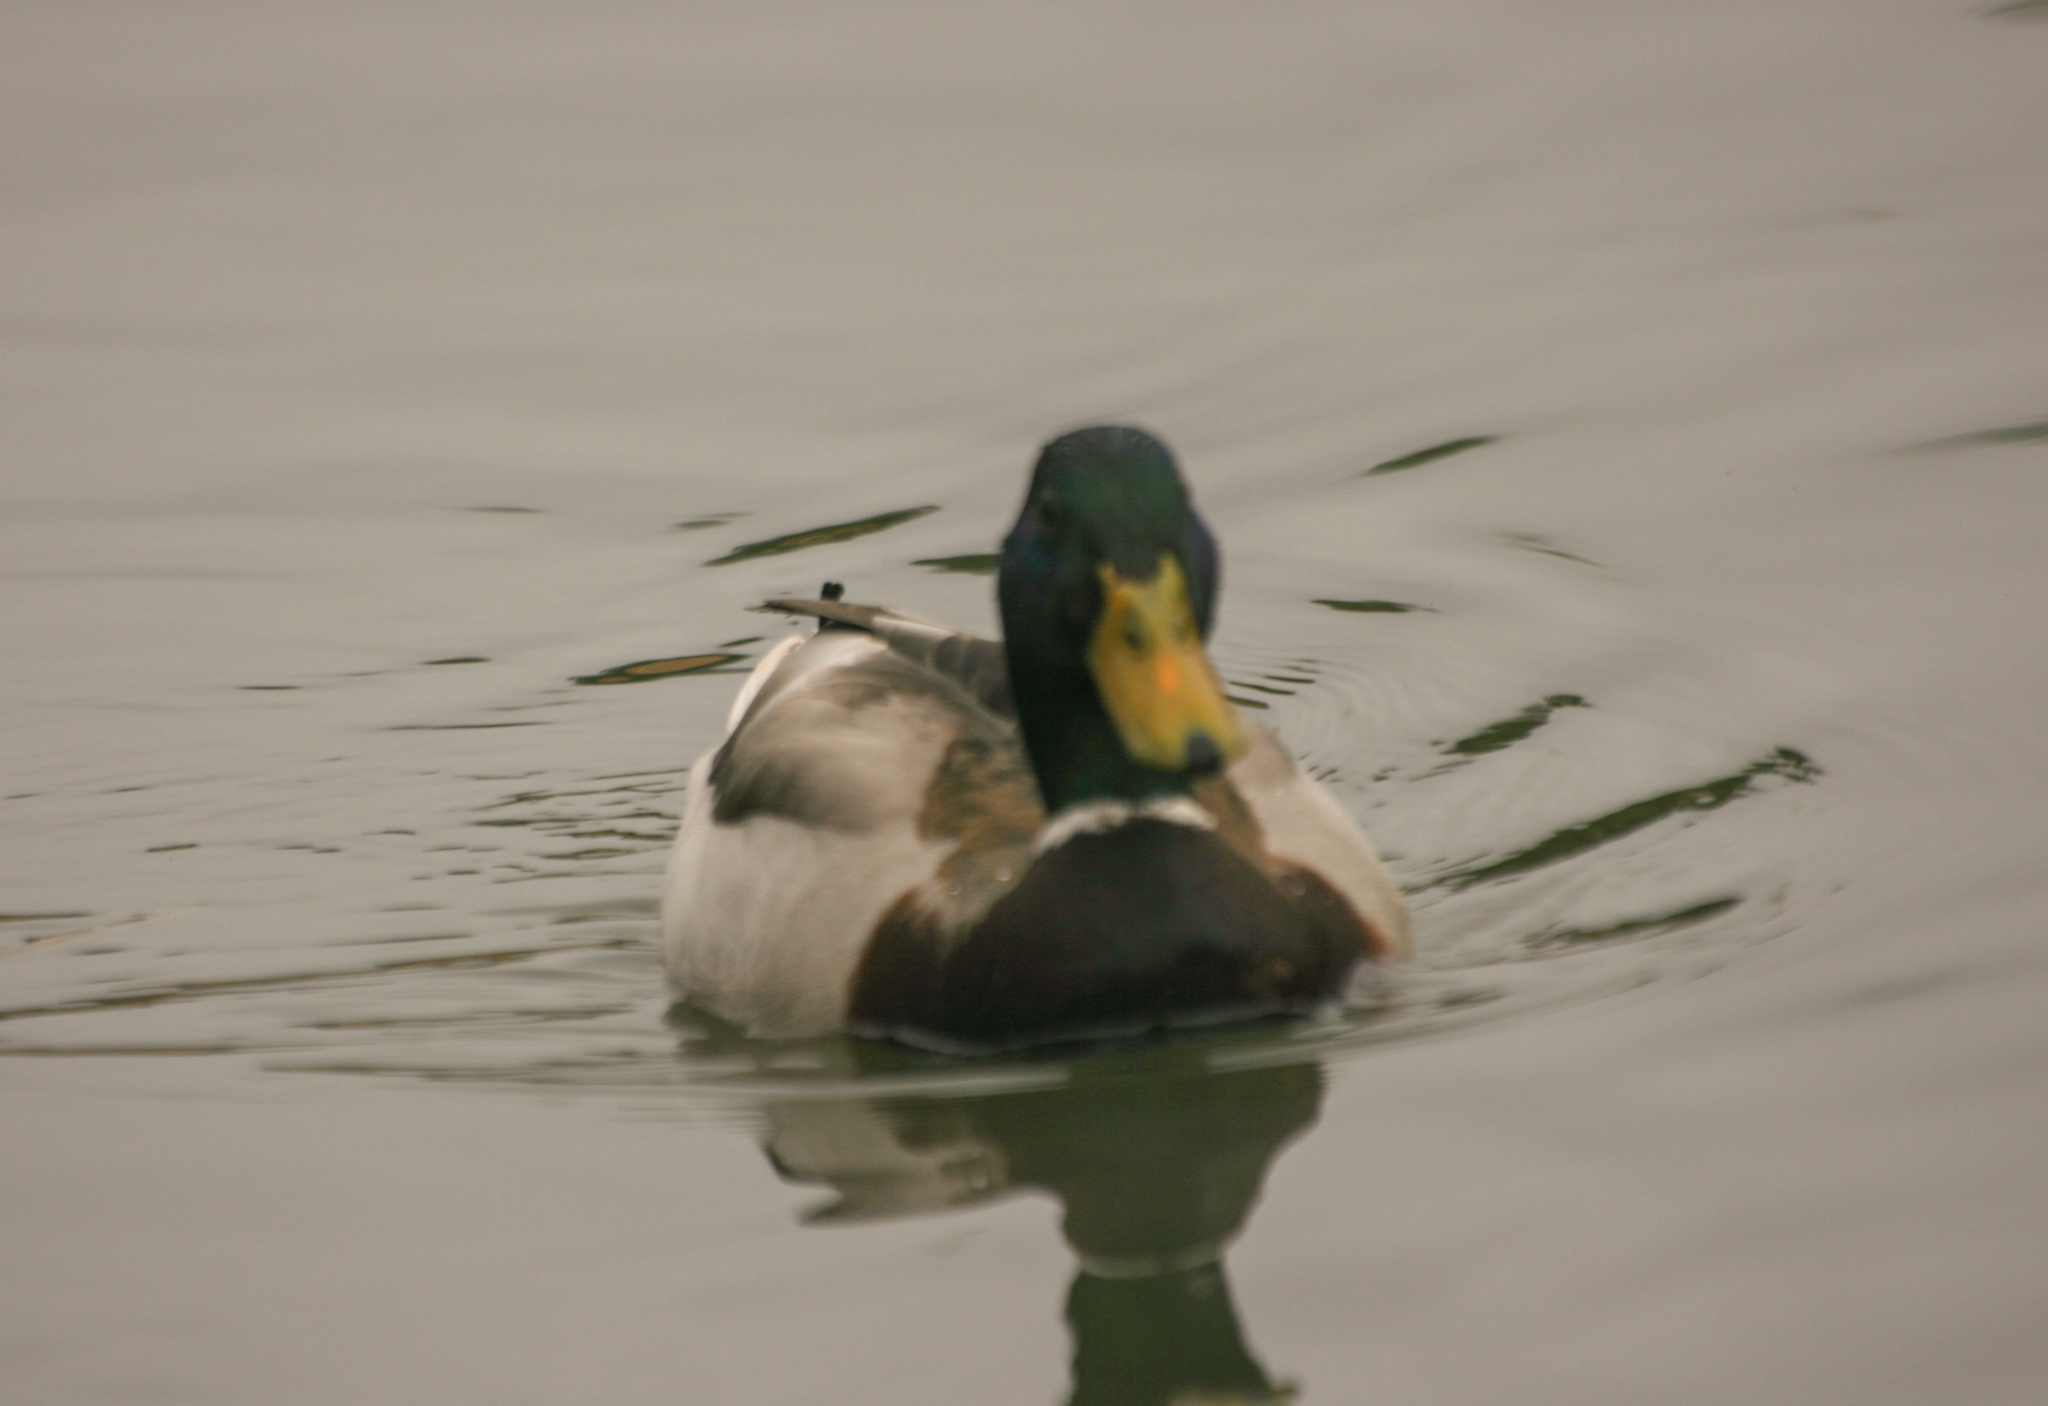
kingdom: Animalia
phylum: Chordata
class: Aves
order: Anseriformes
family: Anatidae
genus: Anas
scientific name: Anas platyrhynchos
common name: Mallard
